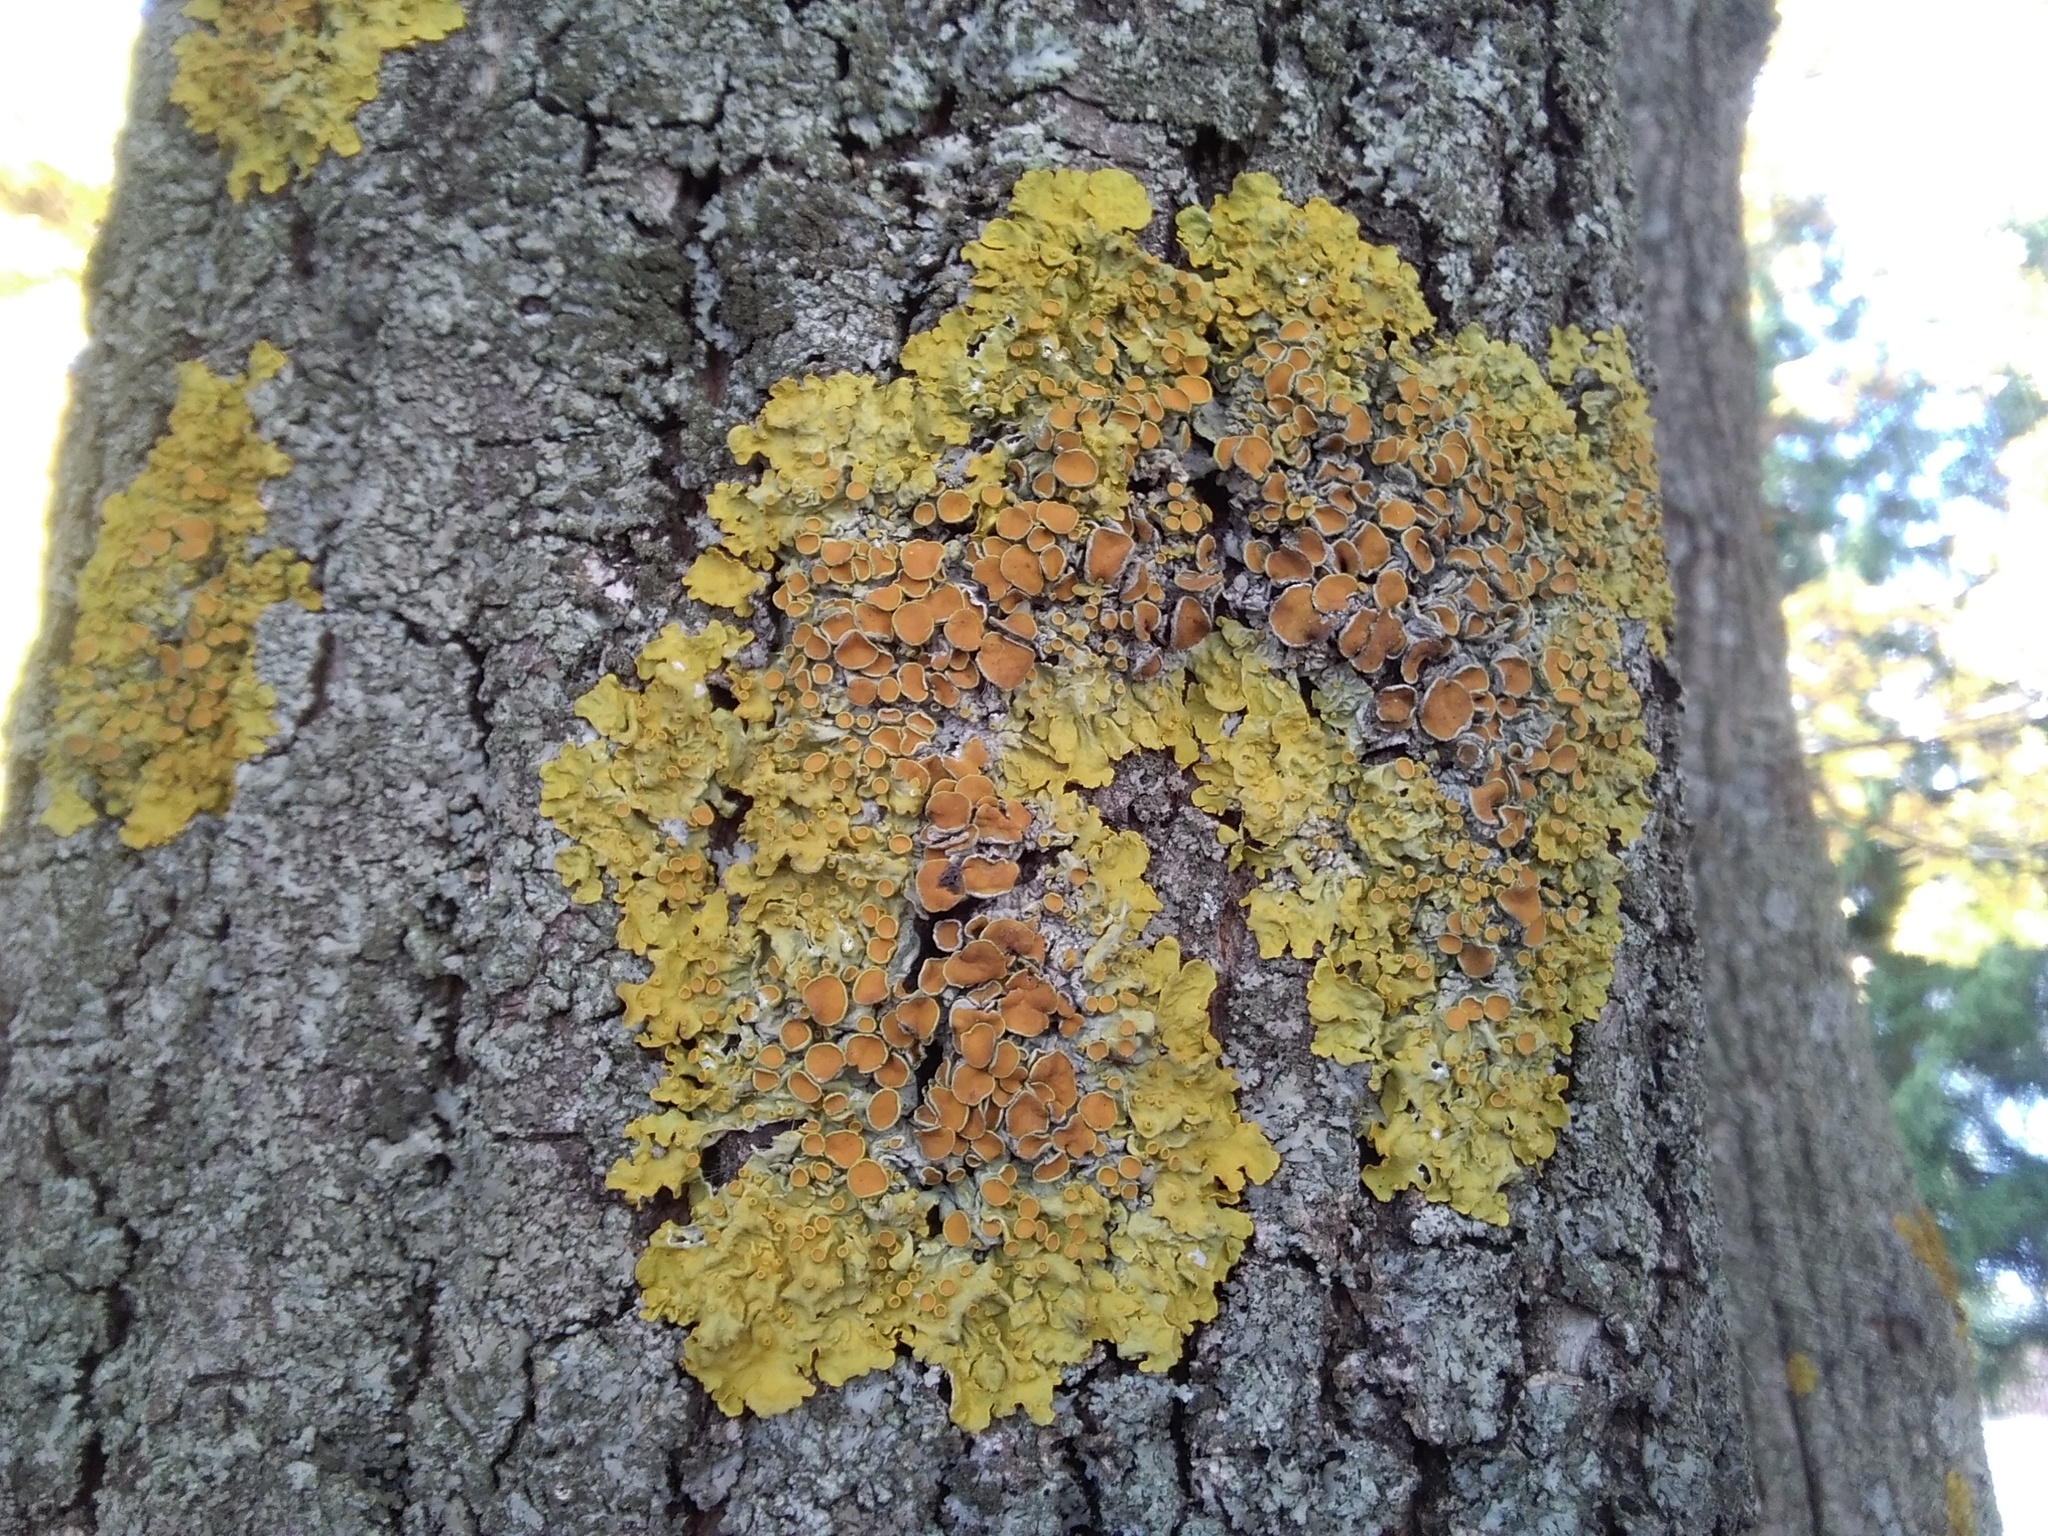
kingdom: Fungi
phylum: Ascomycota
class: Lecanoromycetes
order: Teloschistales
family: Teloschistaceae
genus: Xanthoria
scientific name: Xanthoria parietina
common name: Common orange lichen
